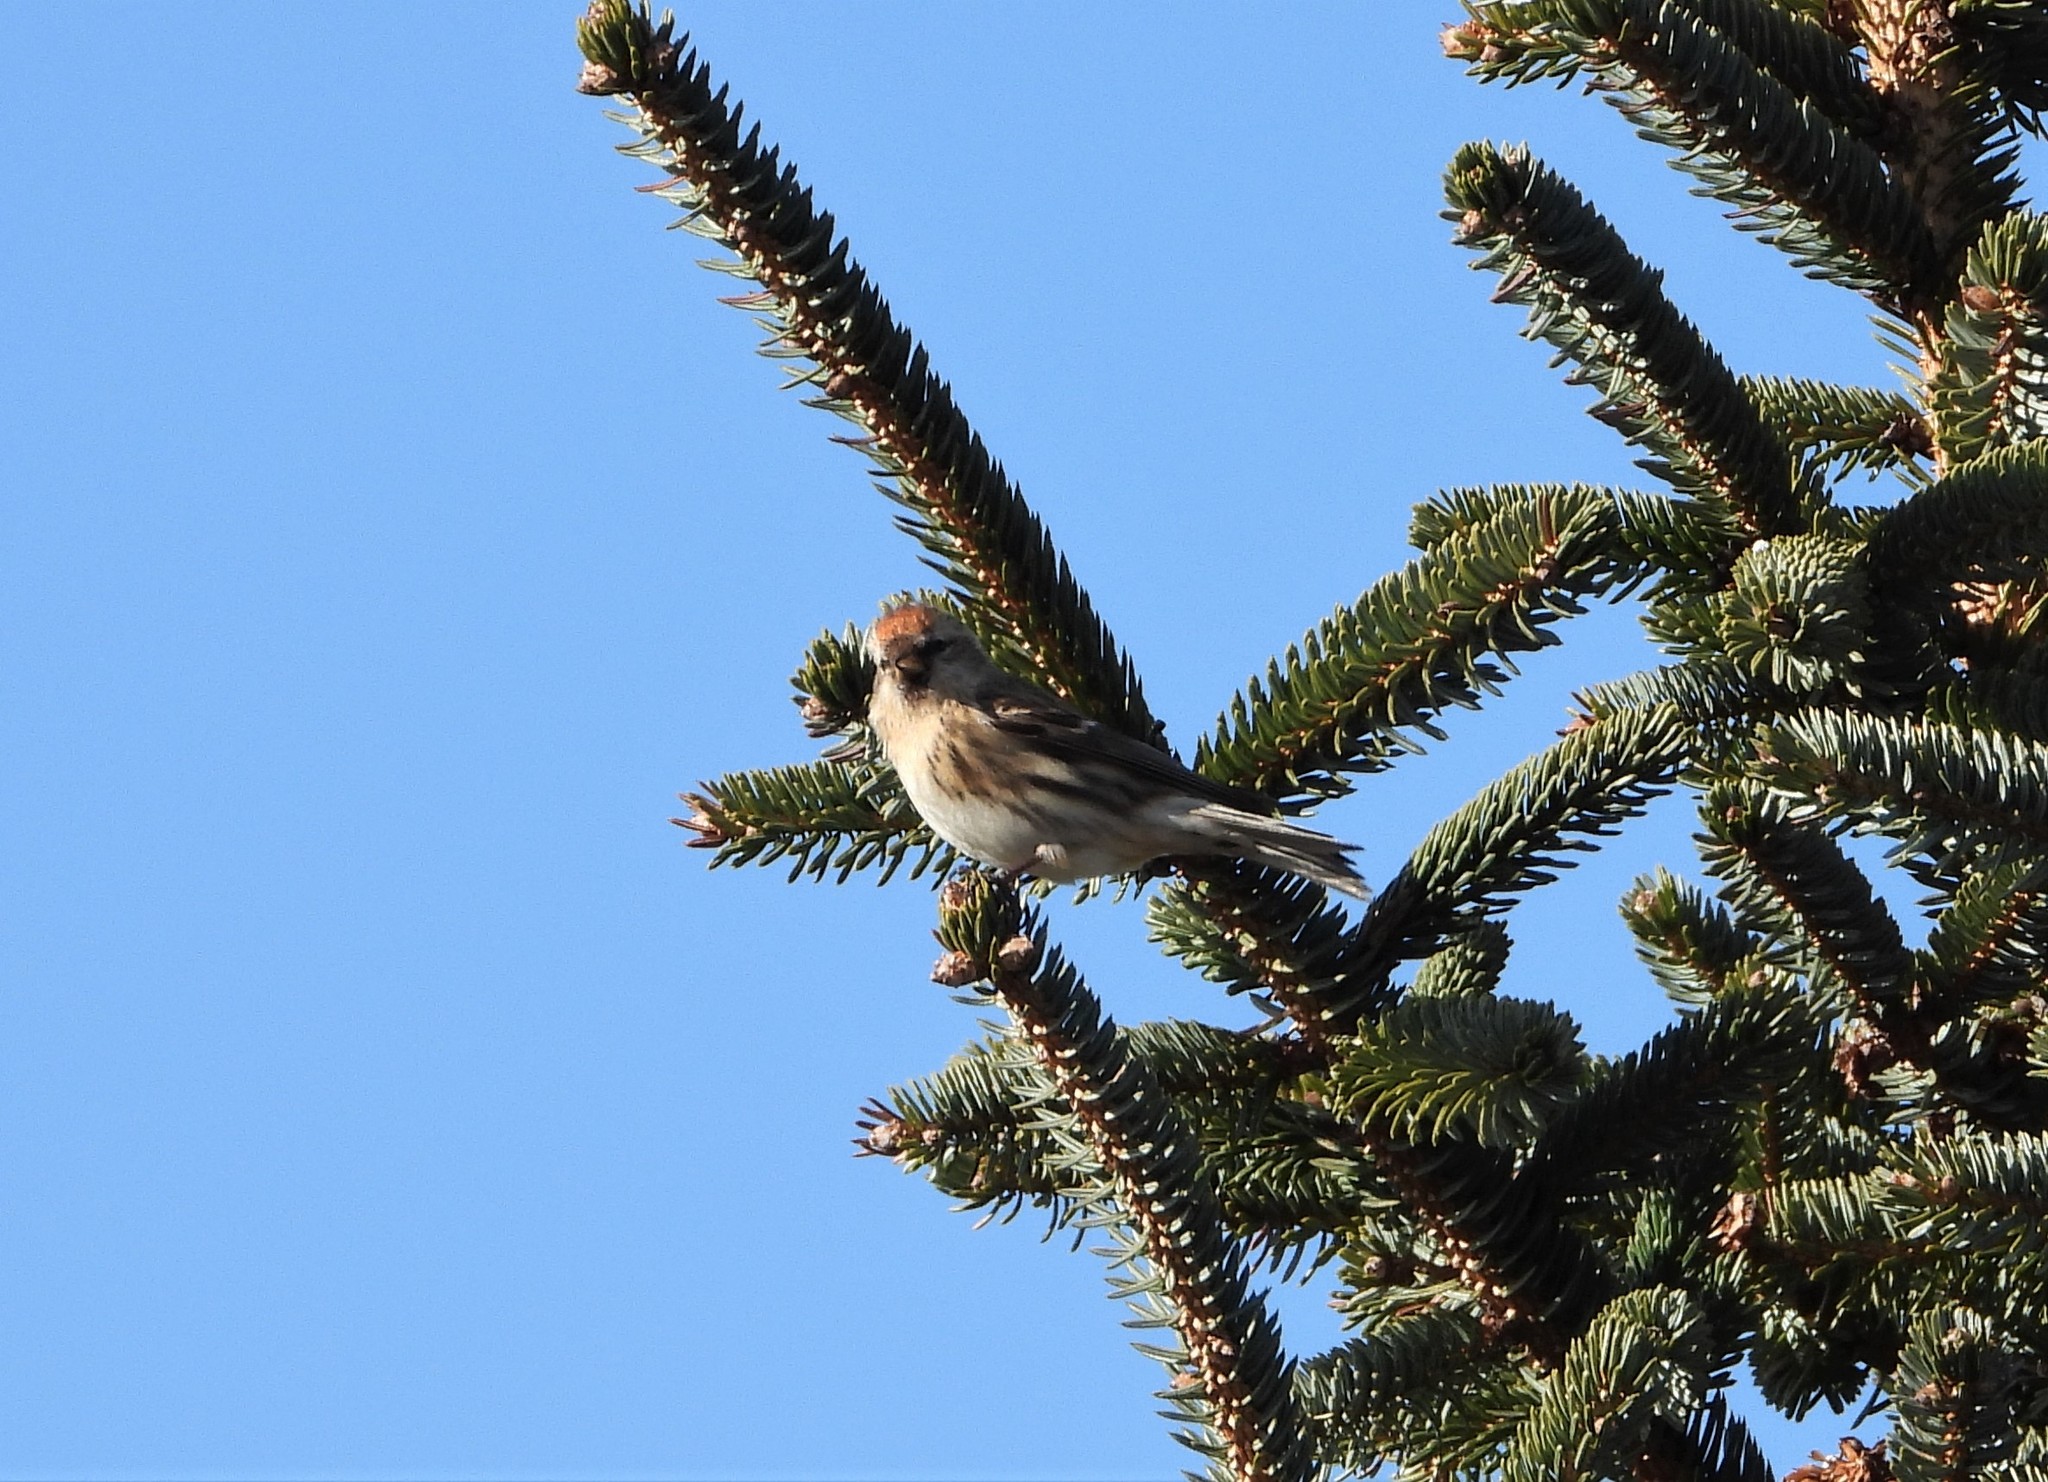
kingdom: Animalia
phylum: Chordata
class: Aves
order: Passeriformes
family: Fringillidae
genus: Acanthis
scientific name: Acanthis flammea
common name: Common redpoll
